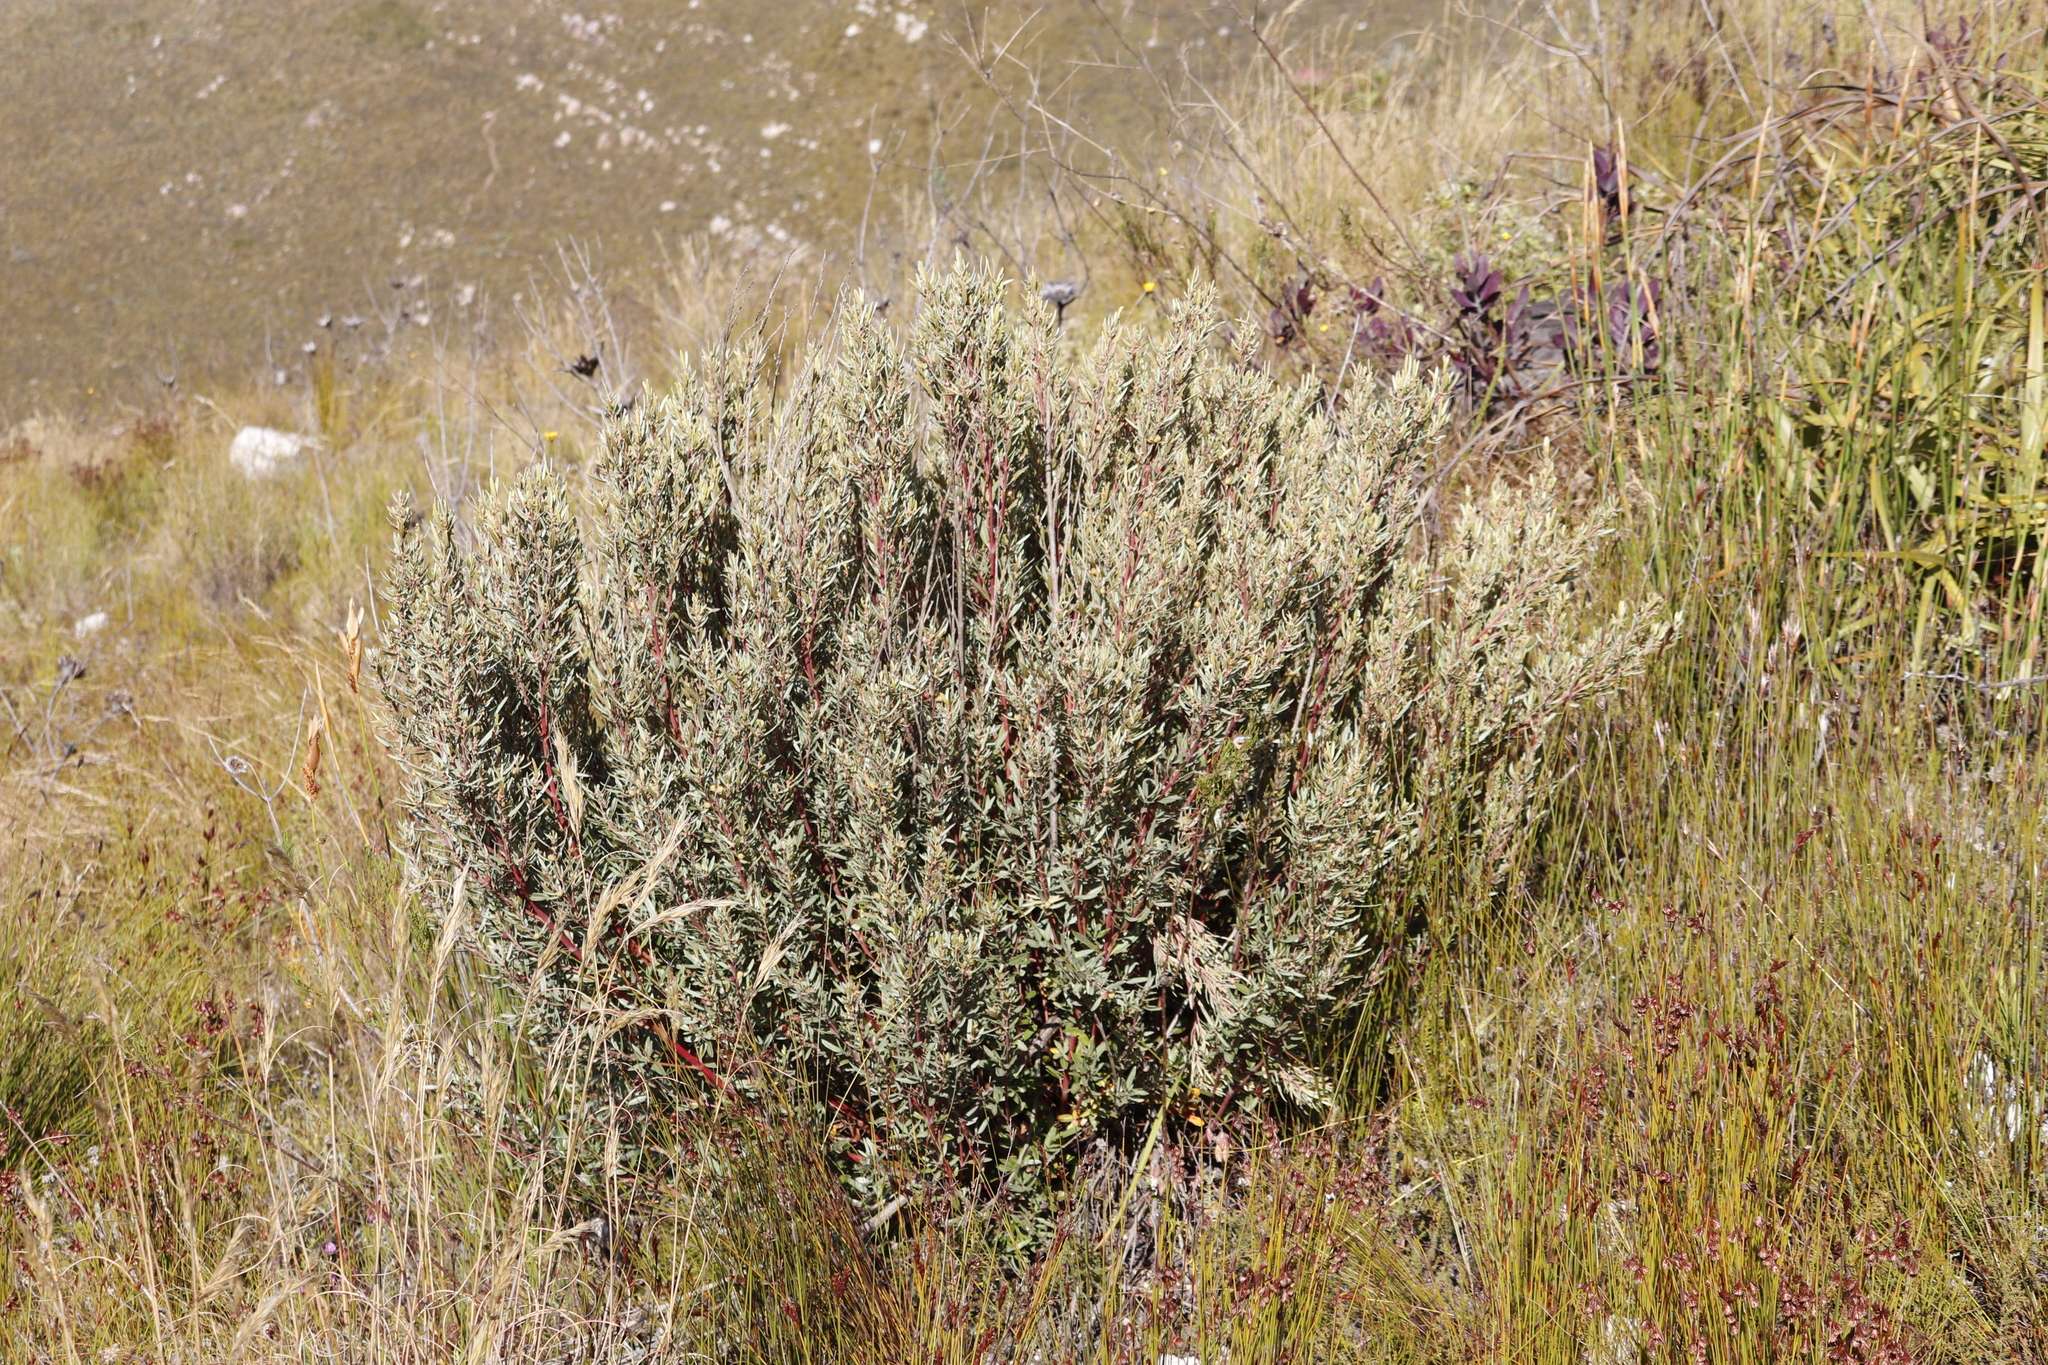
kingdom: Plantae
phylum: Tracheophyta
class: Magnoliopsida
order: Cornales
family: Grubbiaceae
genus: Grubbia
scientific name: Grubbia tomentosa
